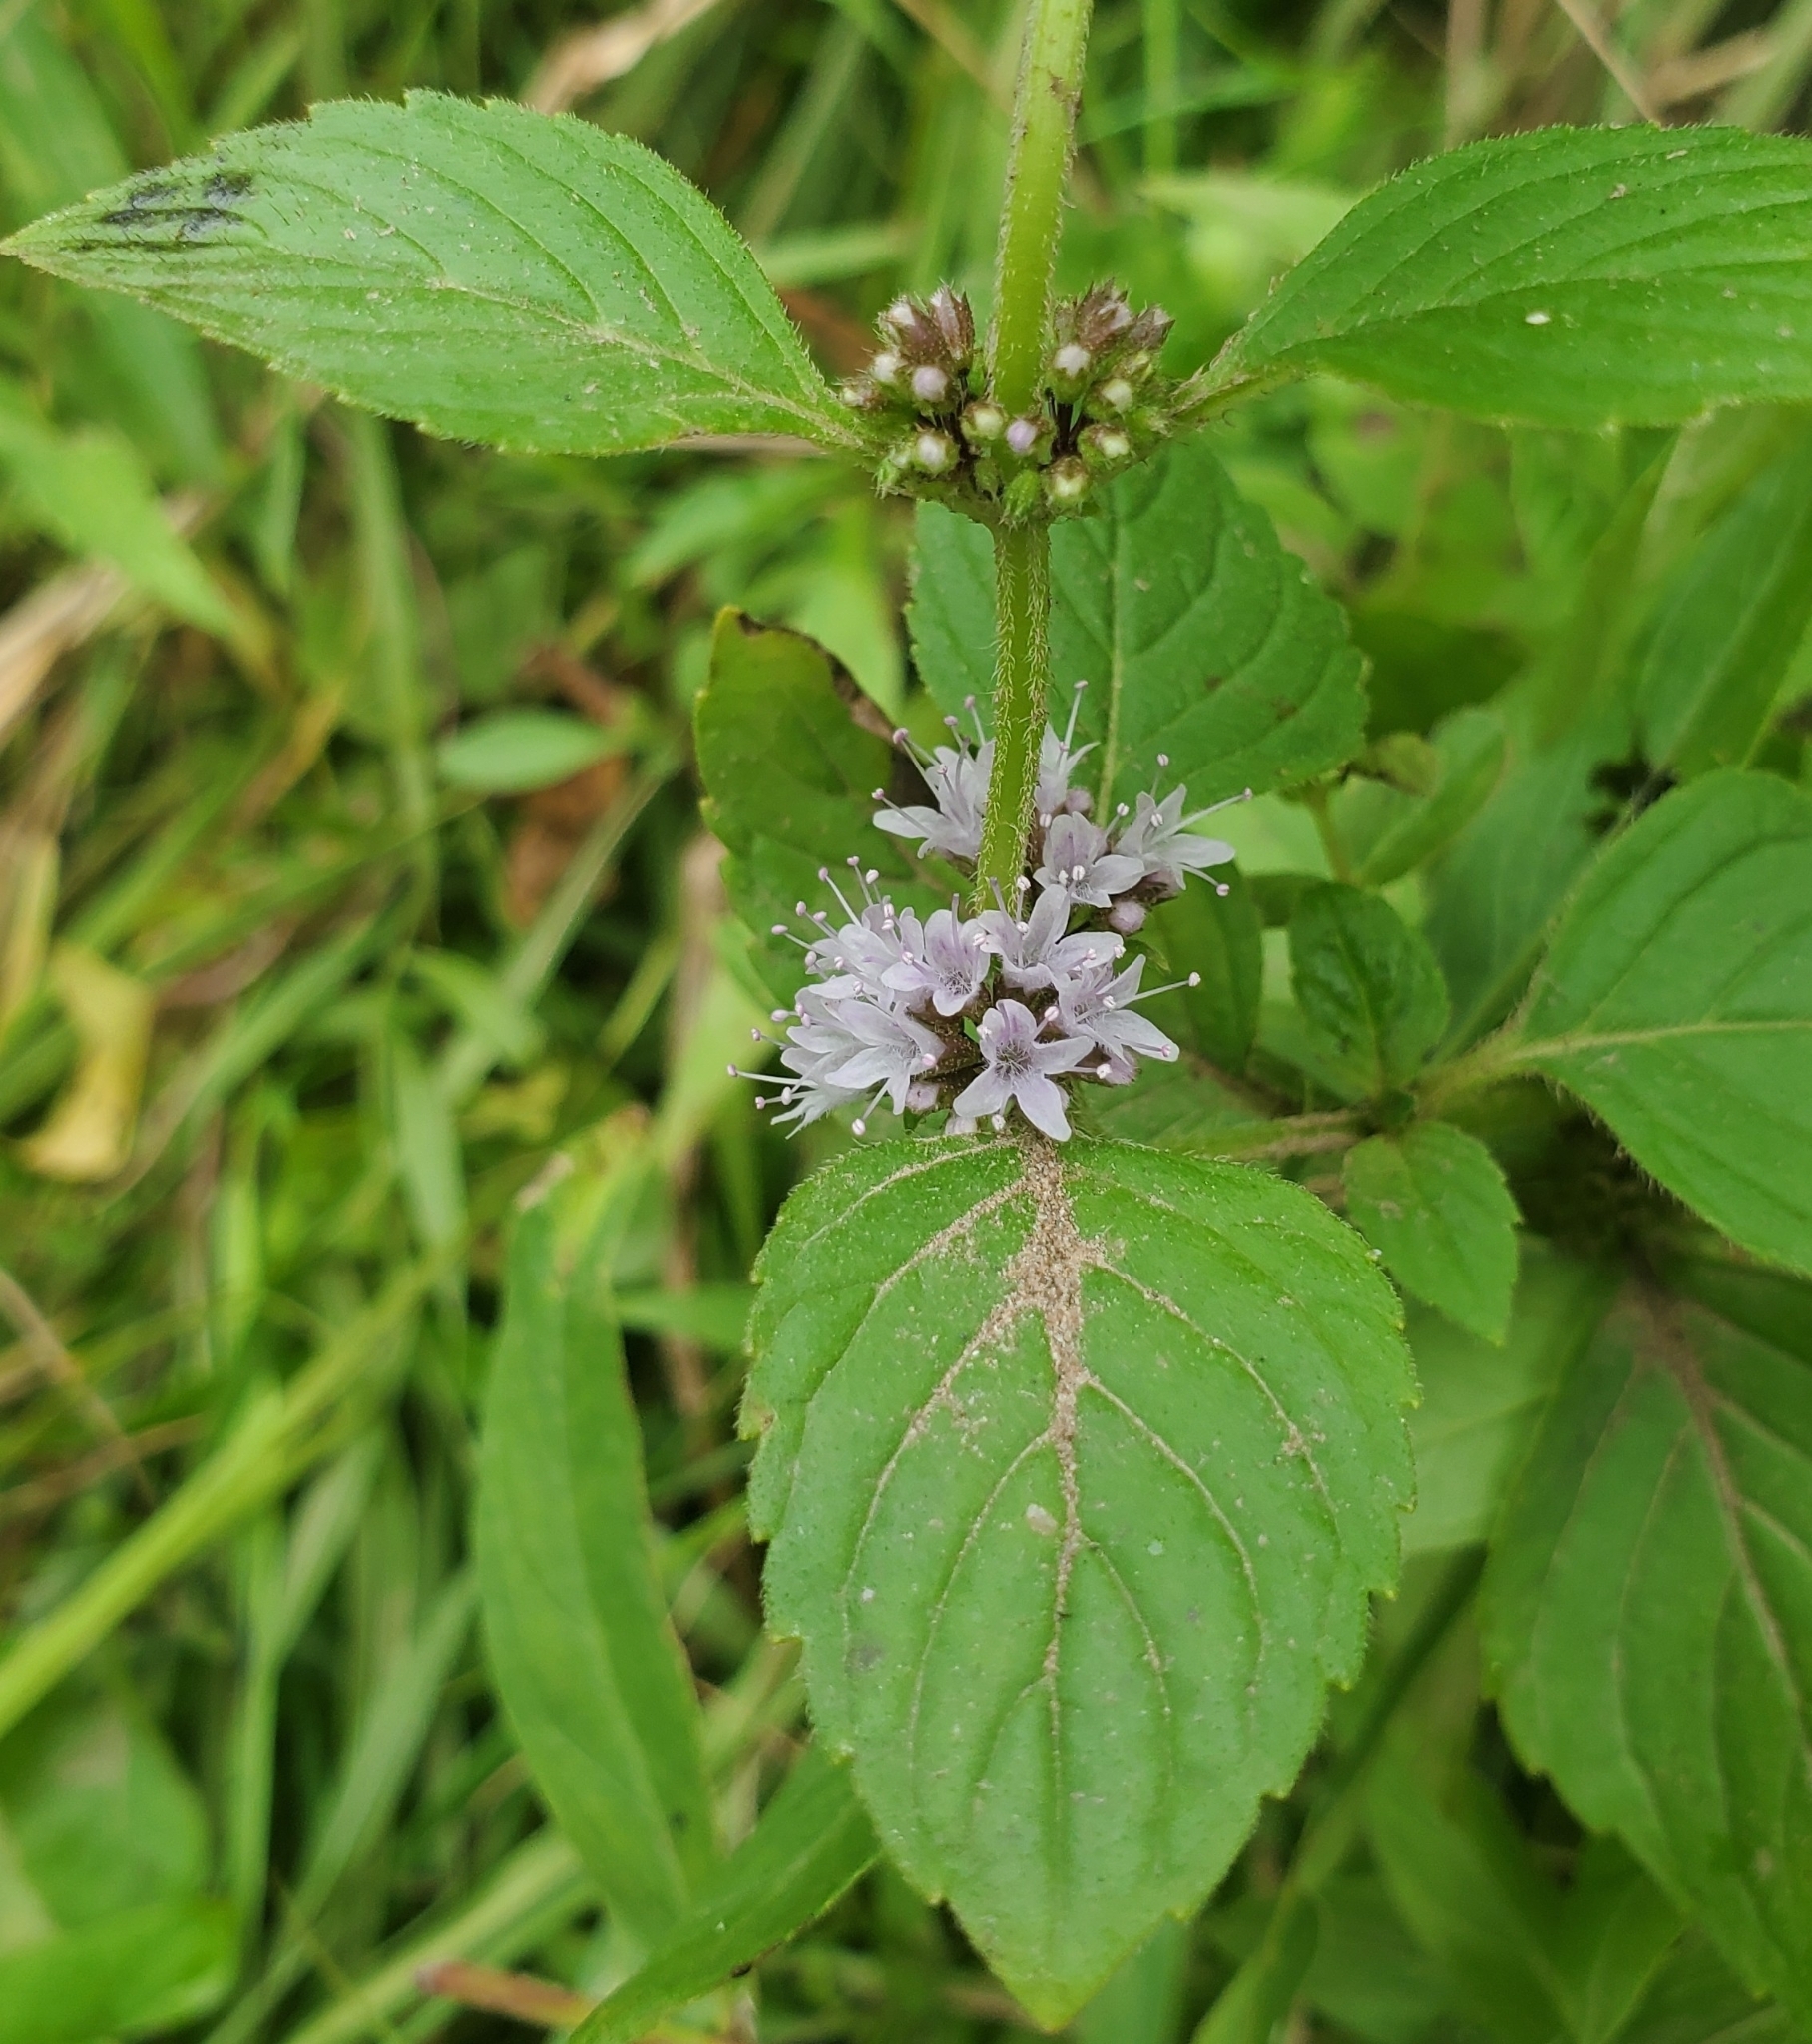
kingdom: Plantae
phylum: Tracheophyta
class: Magnoliopsida
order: Lamiales
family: Lamiaceae
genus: Mentha
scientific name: Mentha canadensis
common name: American corn mint
